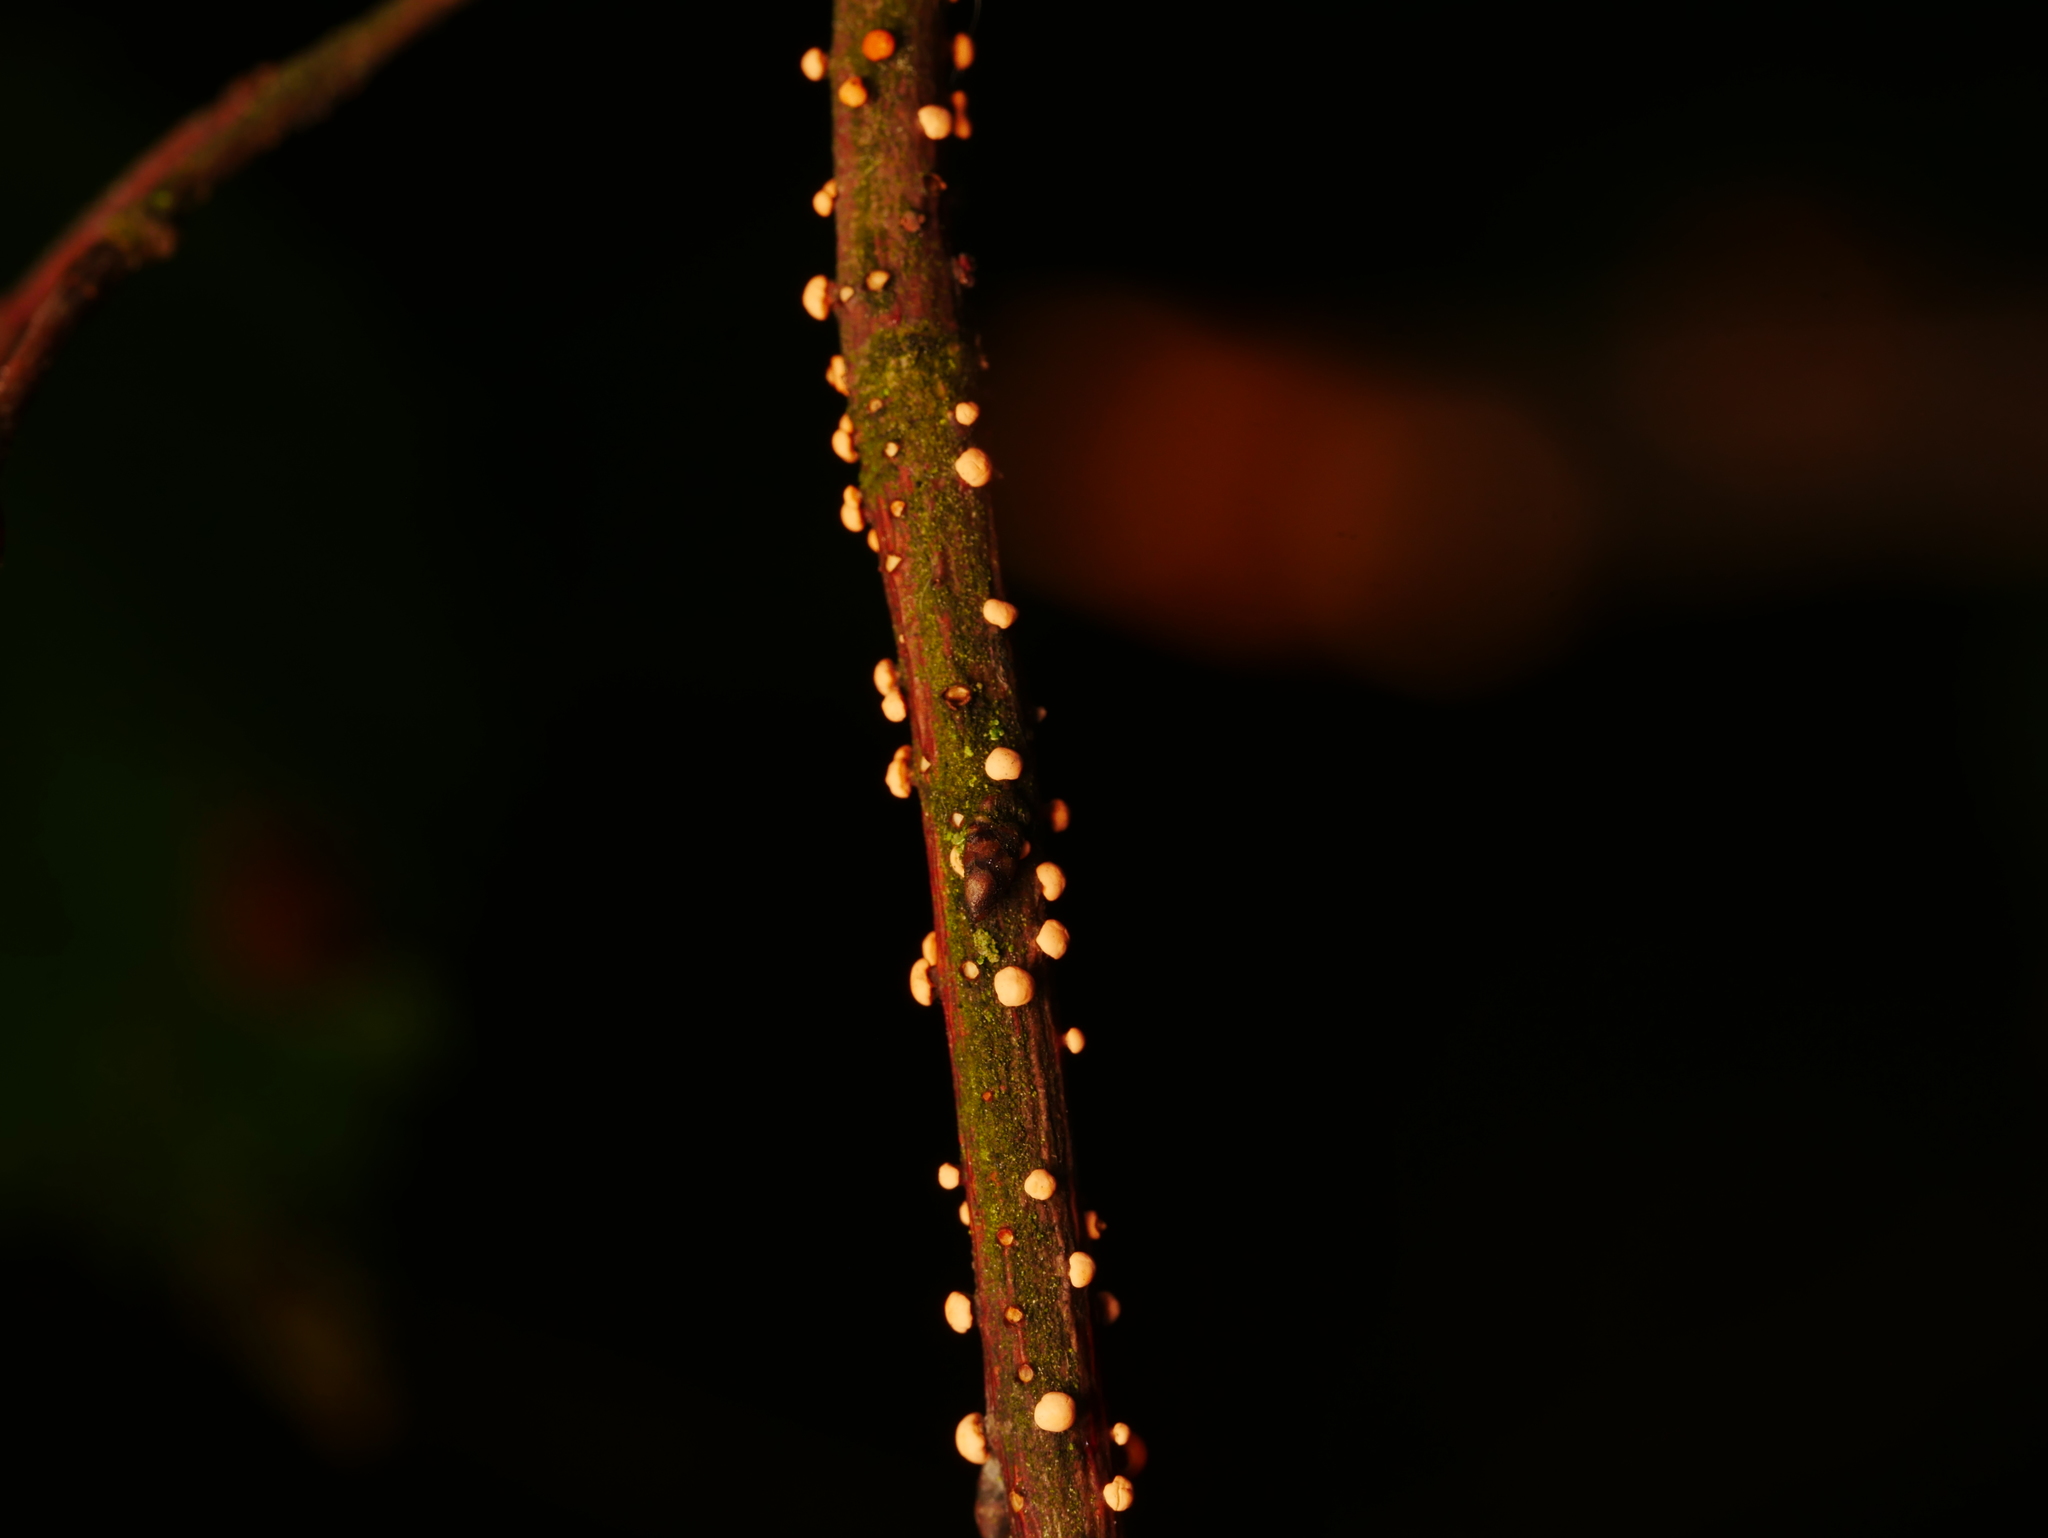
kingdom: Fungi
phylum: Ascomycota
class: Sordariomycetes
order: Hypocreales
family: Nectriaceae
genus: Nectria
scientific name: Nectria cinnabarina
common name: Coral spot
